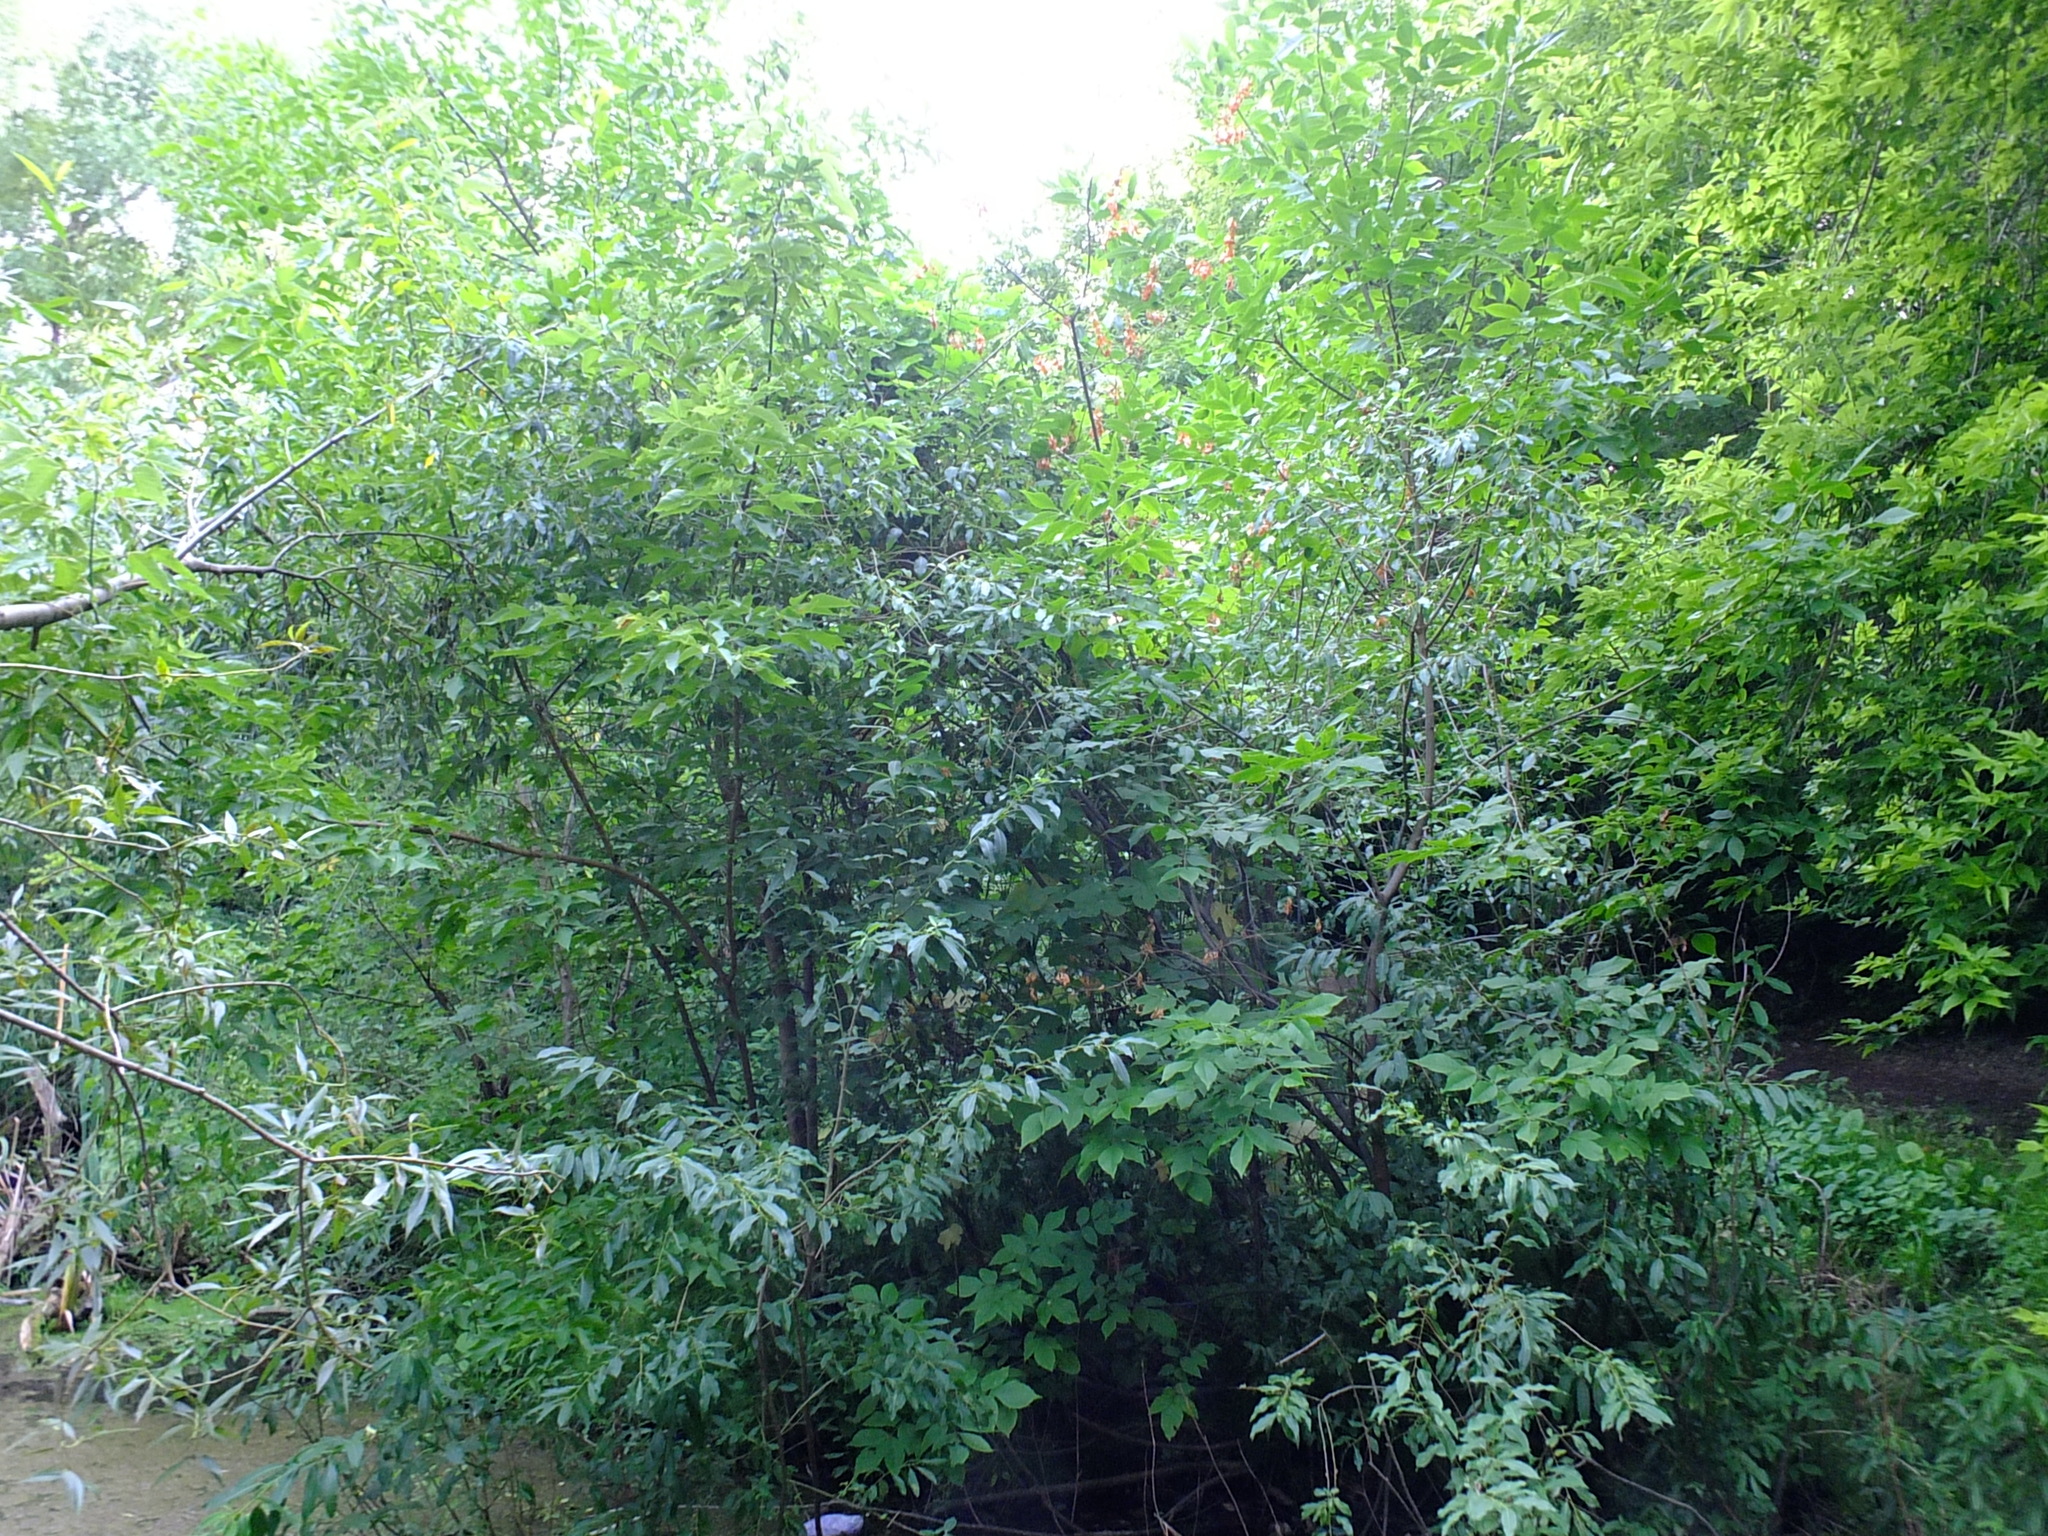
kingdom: Plantae
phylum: Tracheophyta
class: Magnoliopsida
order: Sapindales
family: Sapindaceae
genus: Acer
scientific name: Acer negundo
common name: Ashleaf maple
